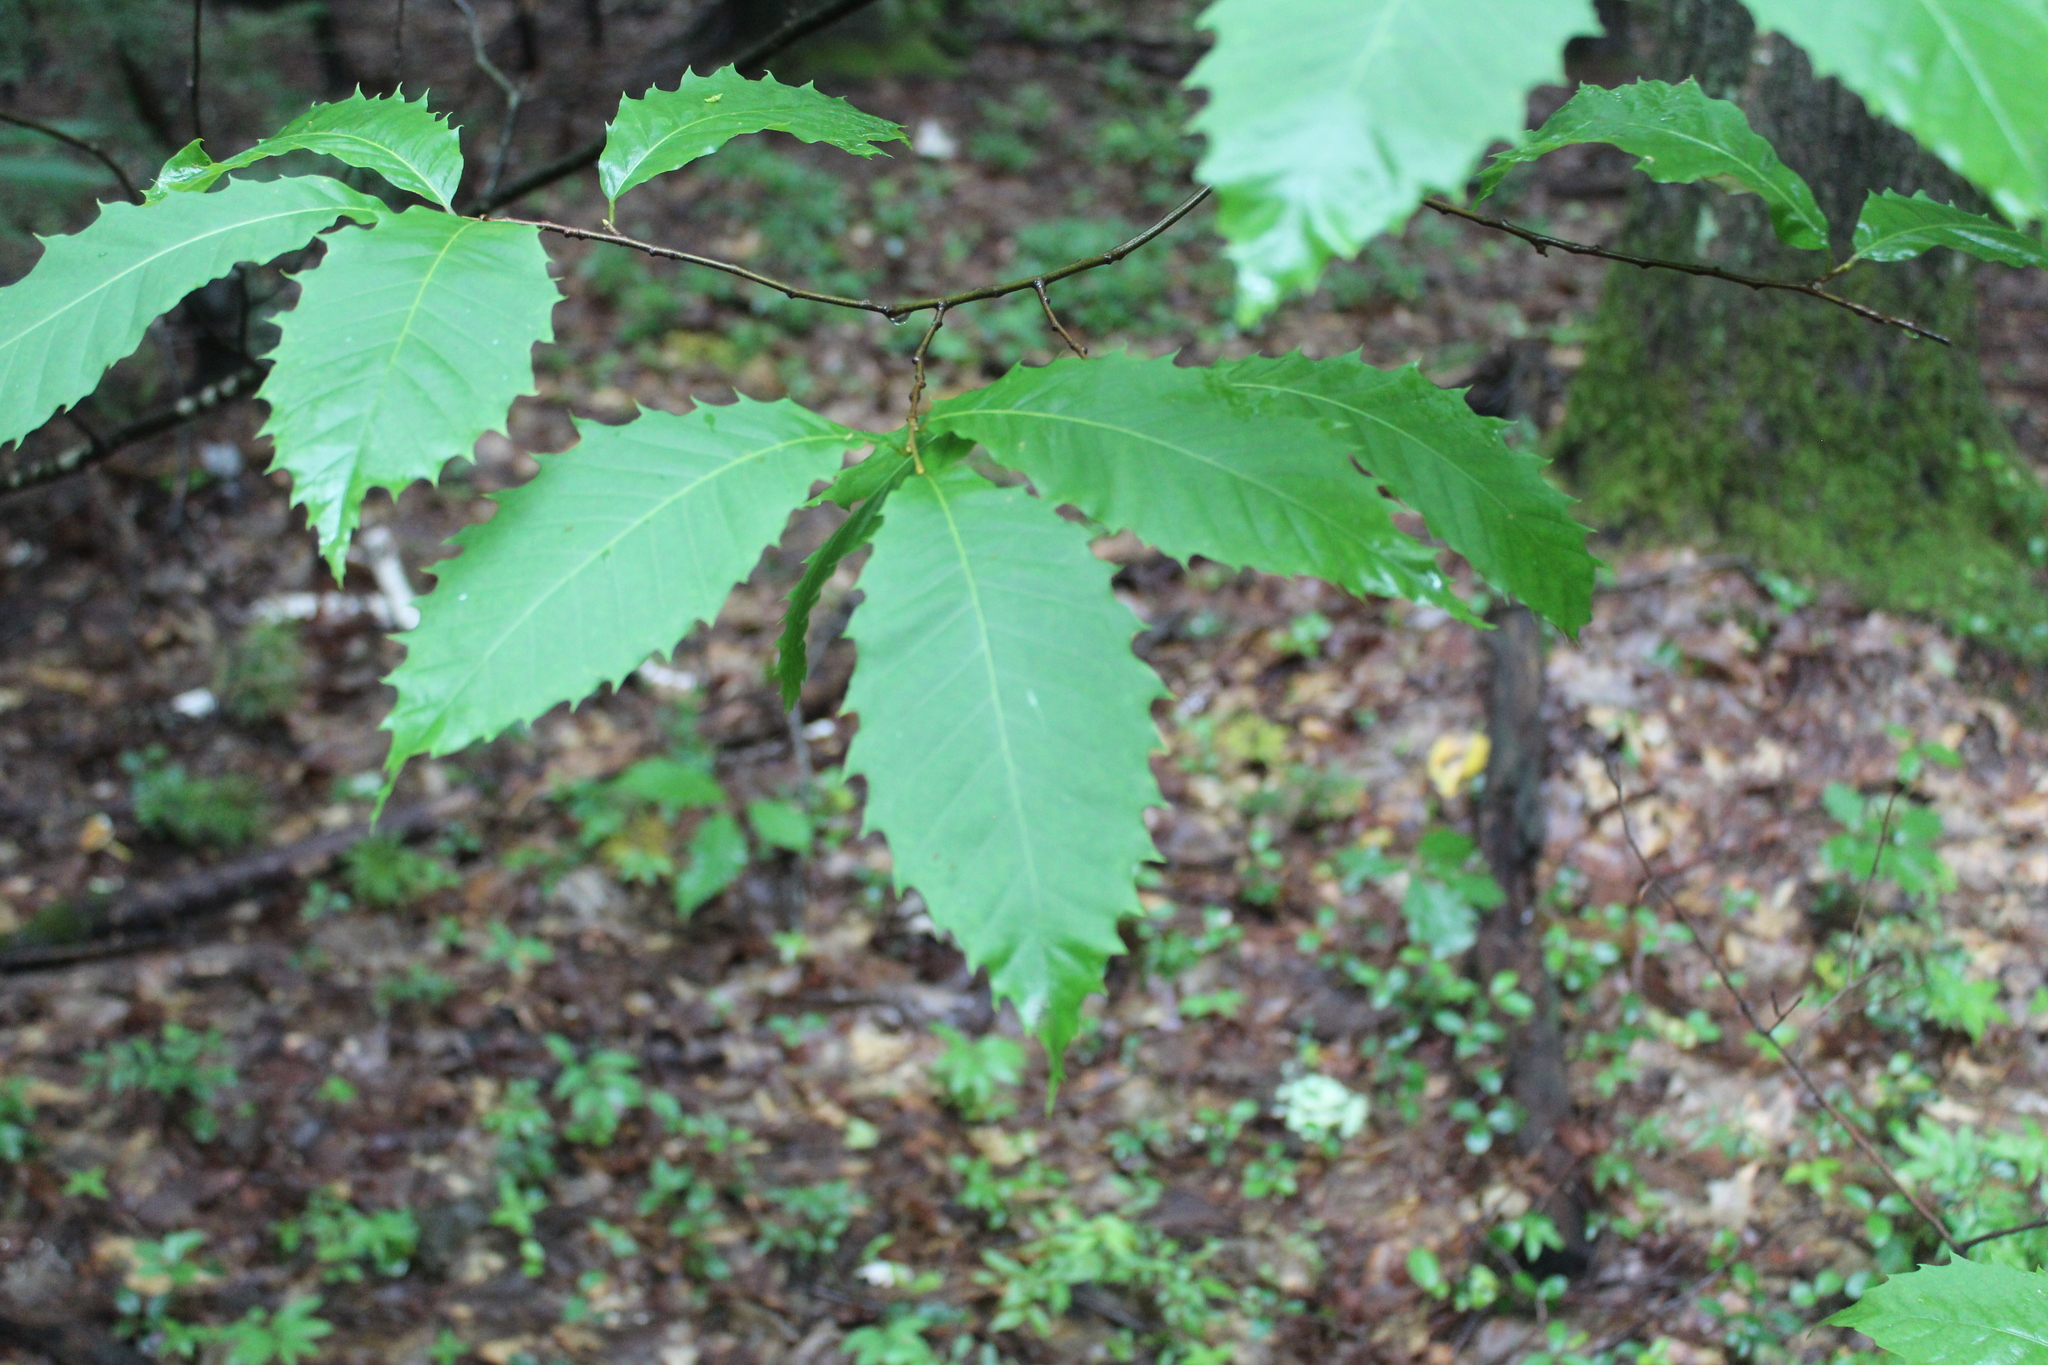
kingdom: Plantae
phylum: Tracheophyta
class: Magnoliopsida
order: Fagales
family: Fagaceae
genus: Castanea
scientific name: Castanea dentata
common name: American chestnut
